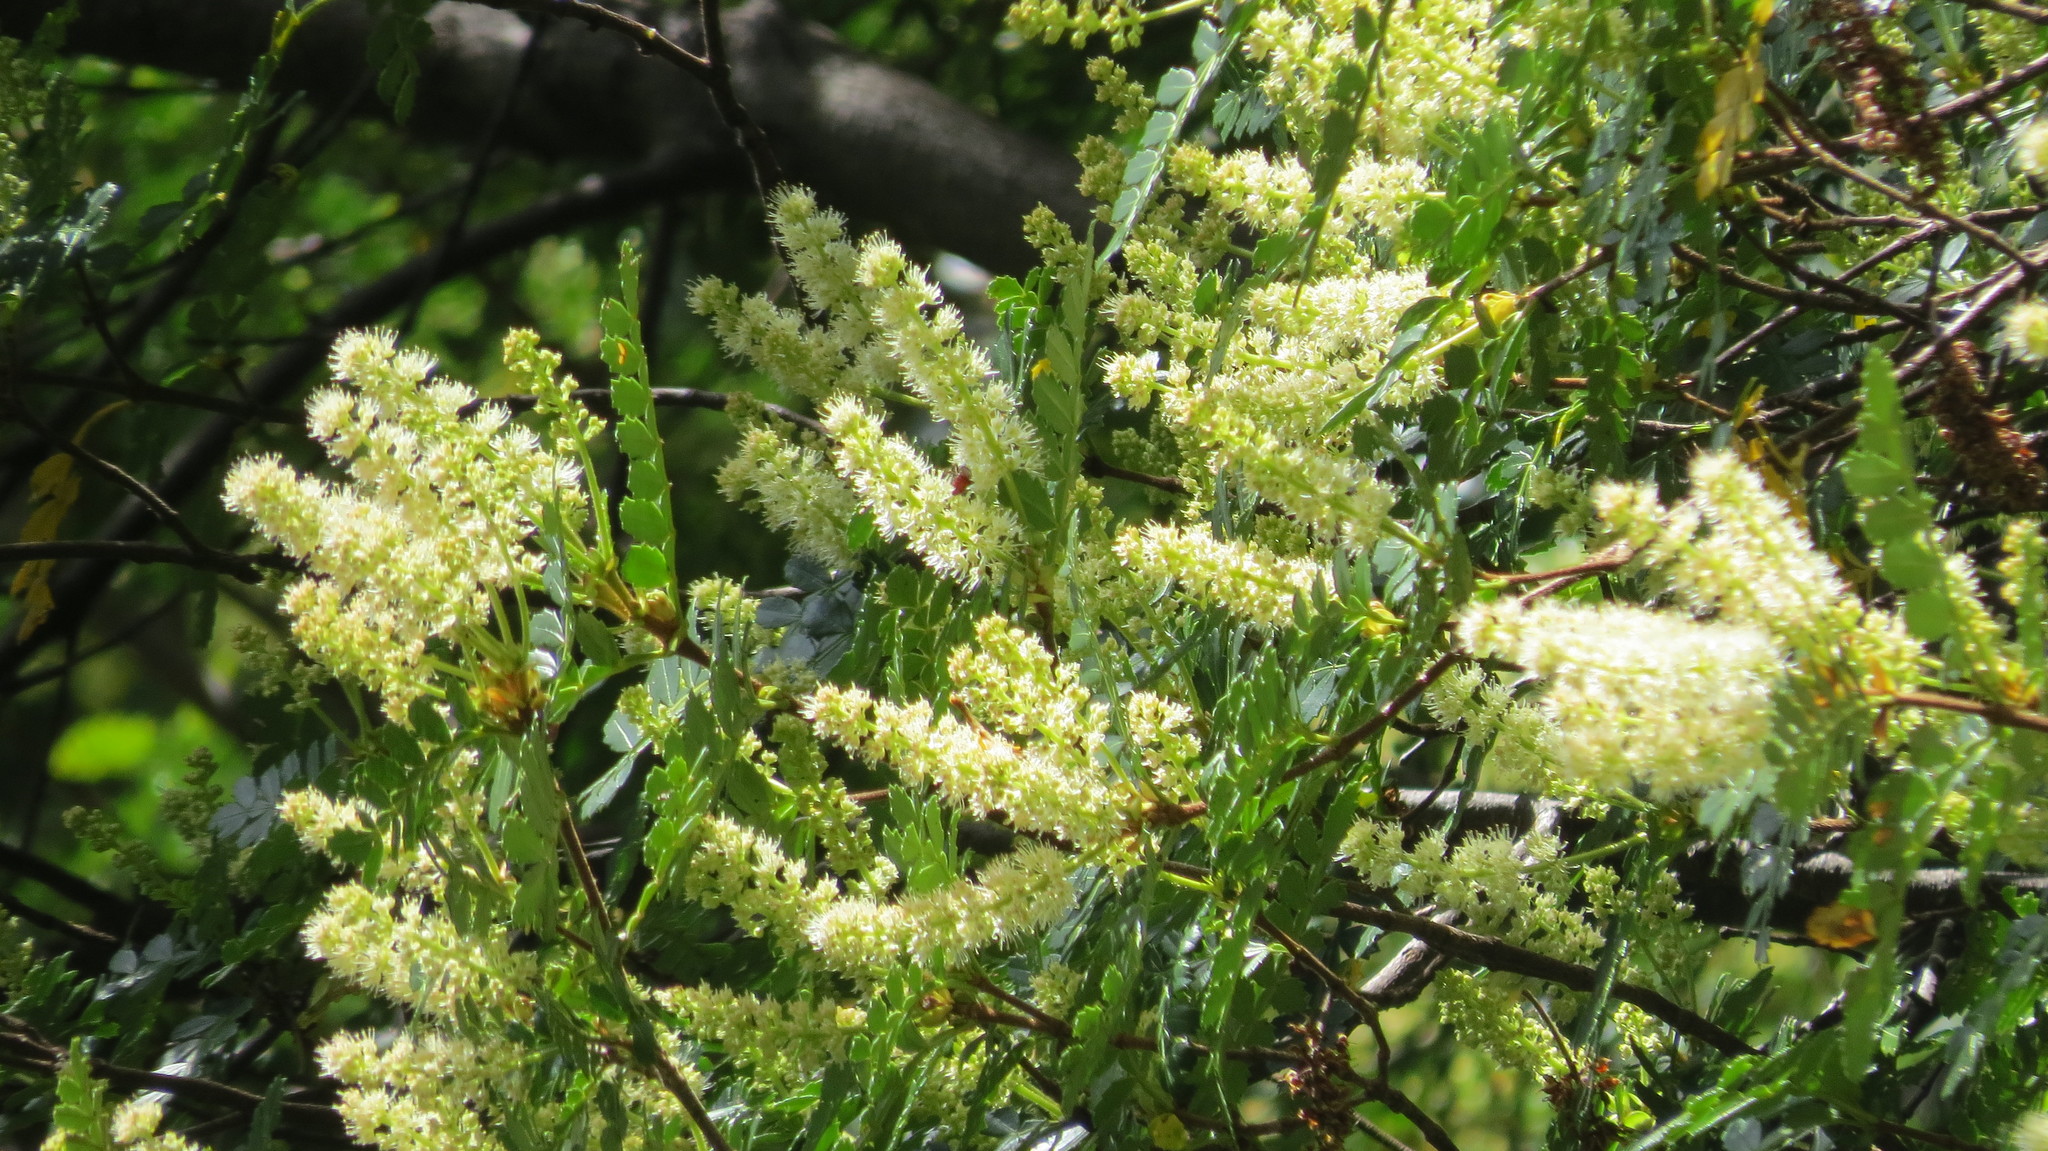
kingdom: Plantae
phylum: Tracheophyta
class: Magnoliopsida
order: Oxalidales
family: Cunoniaceae
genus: Weinmannia
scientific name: Weinmannia trichosperma
